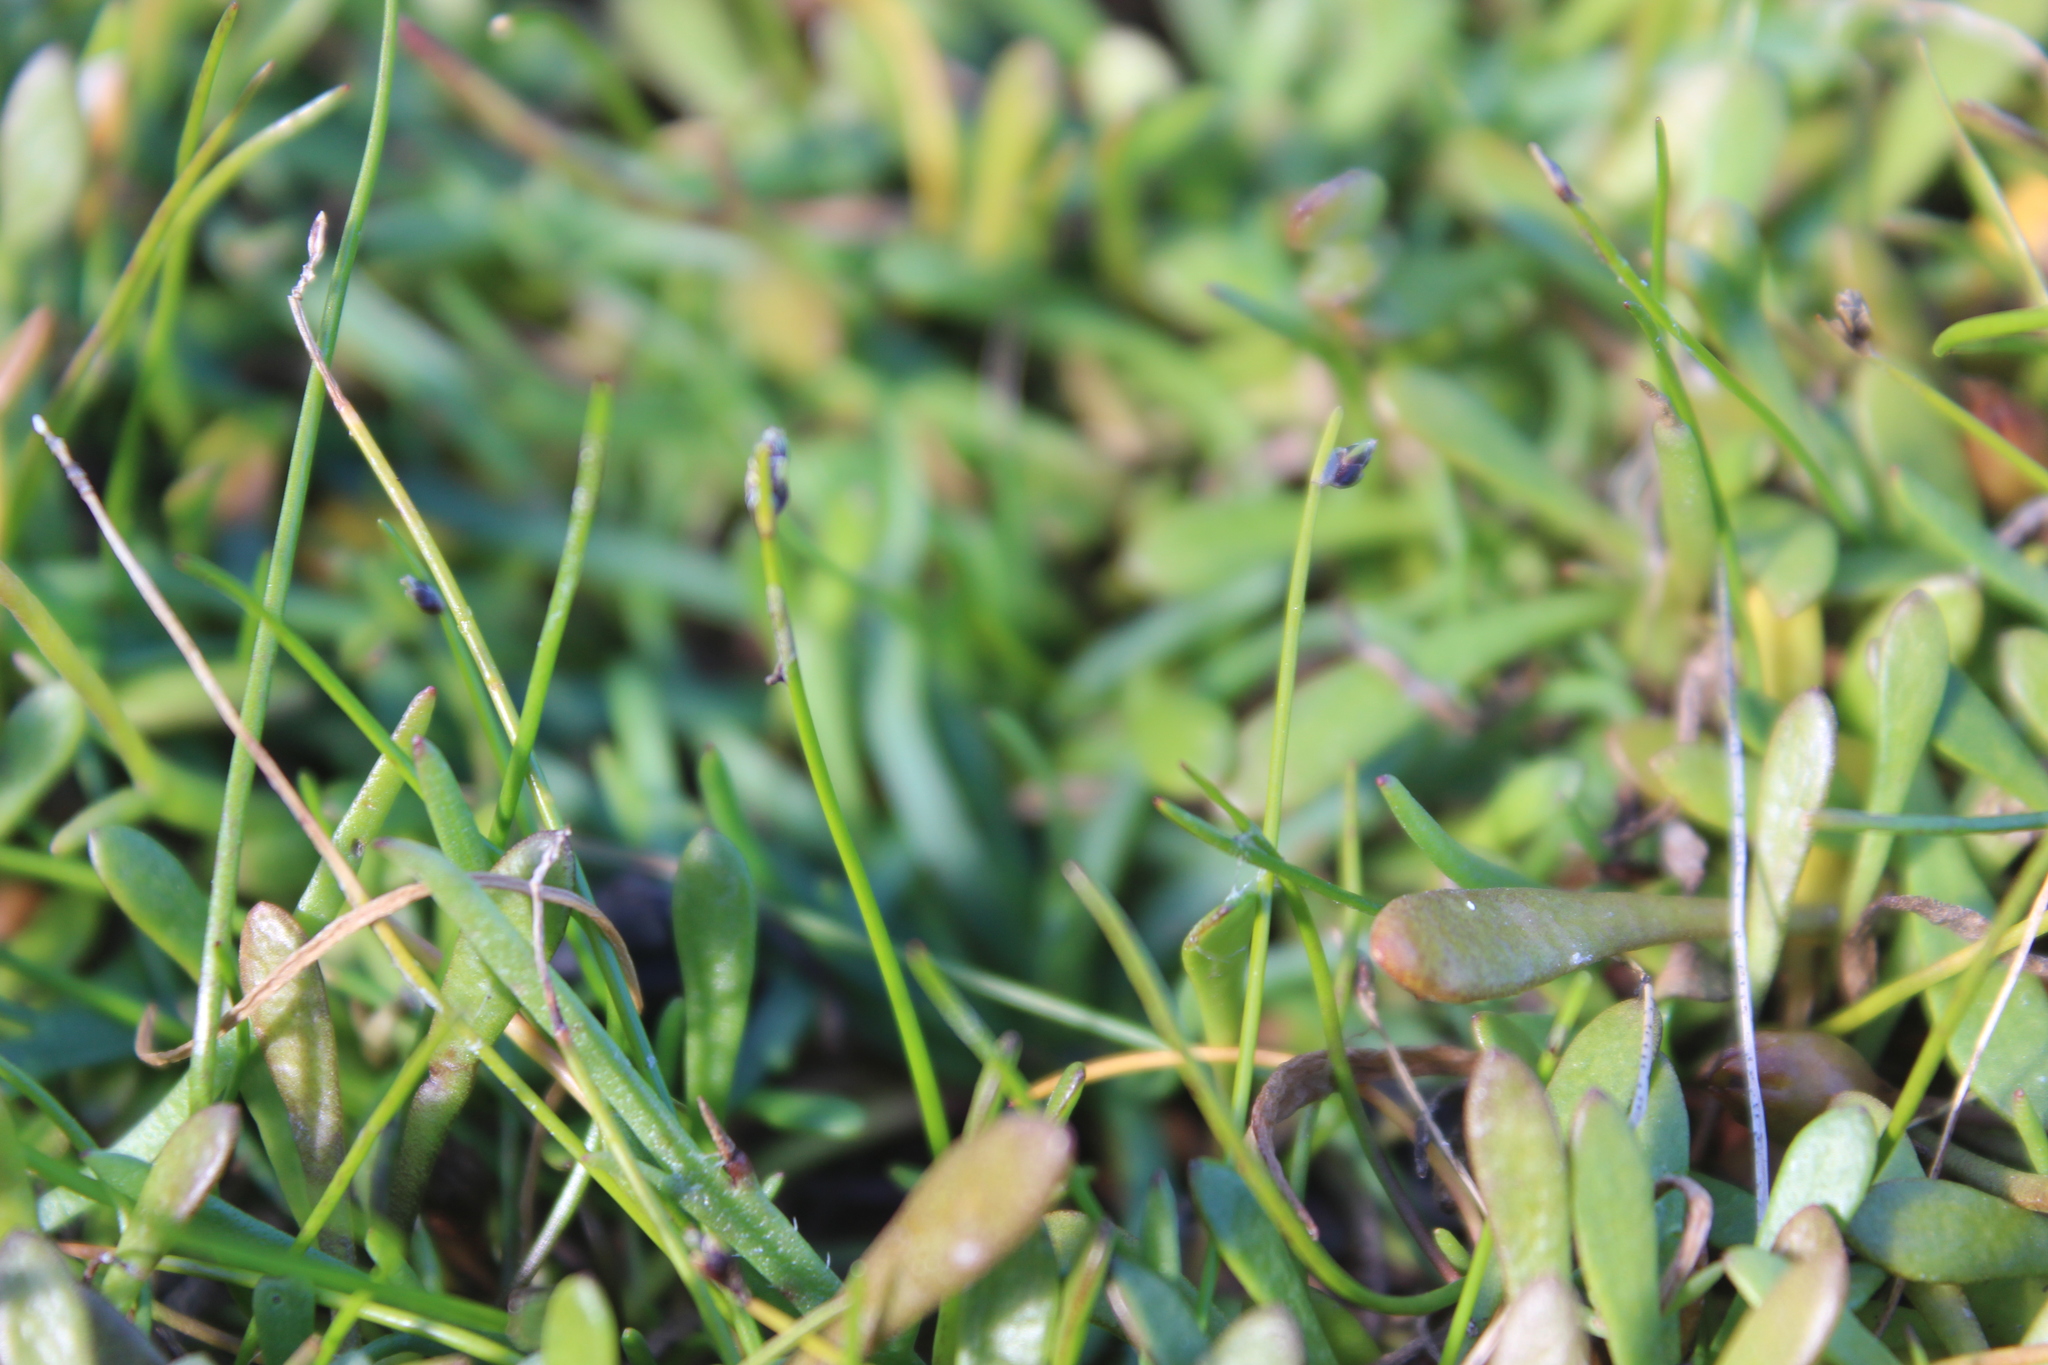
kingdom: Plantae
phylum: Tracheophyta
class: Liliopsida
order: Poales
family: Cyperaceae
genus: Isolepis
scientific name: Isolepis cernua
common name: Slender club-rush
